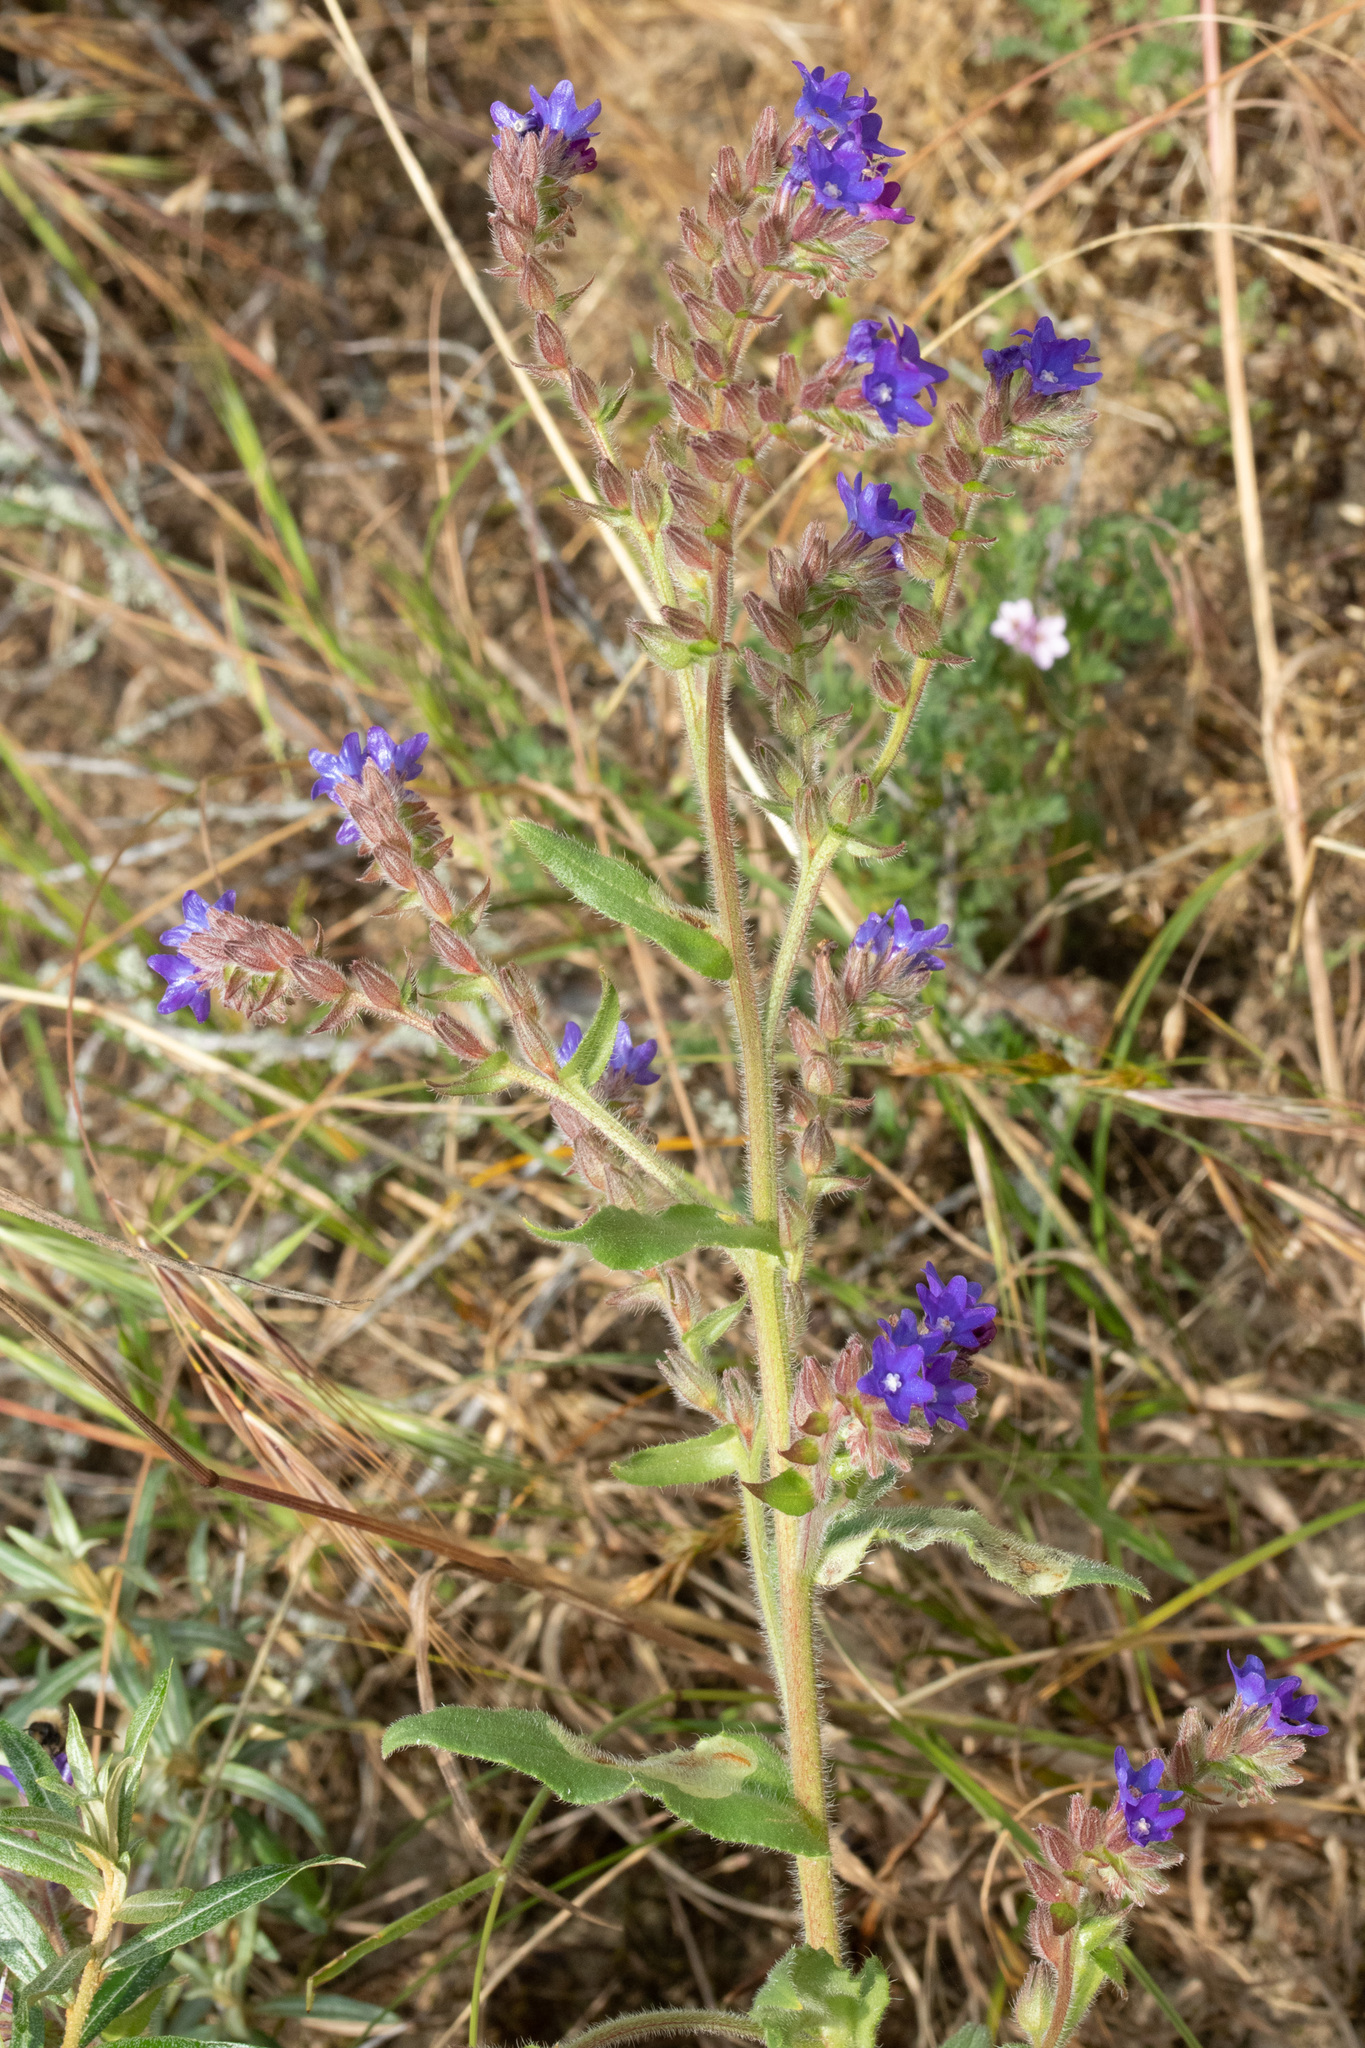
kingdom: Plantae
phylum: Tracheophyta
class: Magnoliopsida
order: Boraginales
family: Boraginaceae
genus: Anchusa
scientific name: Anchusa officinalis
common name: Alkanet
